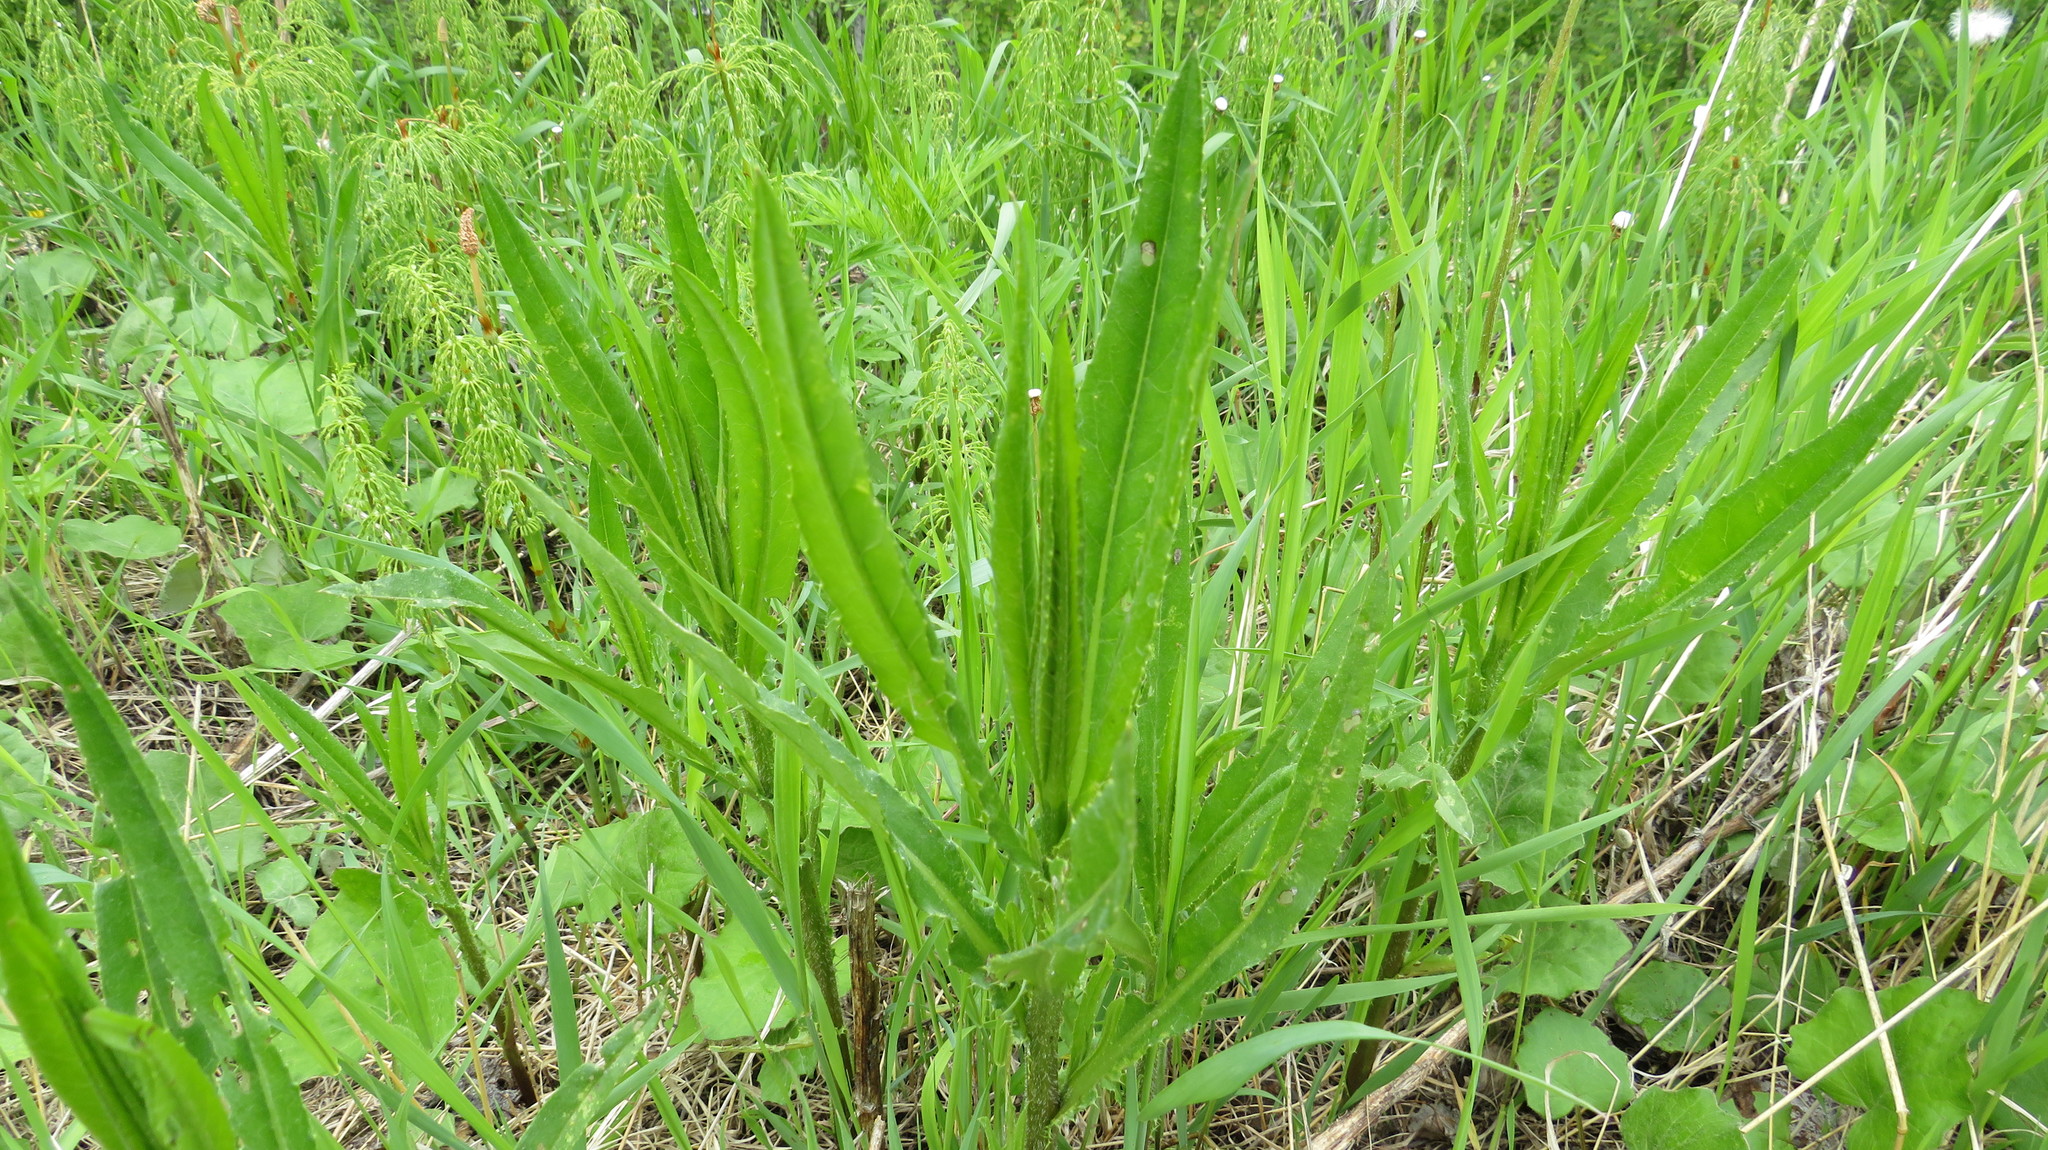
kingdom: Plantae
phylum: Tracheophyta
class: Magnoliopsida
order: Asterales
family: Asteraceae
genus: Cirsium
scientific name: Cirsium arvense
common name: Creeping thistle
